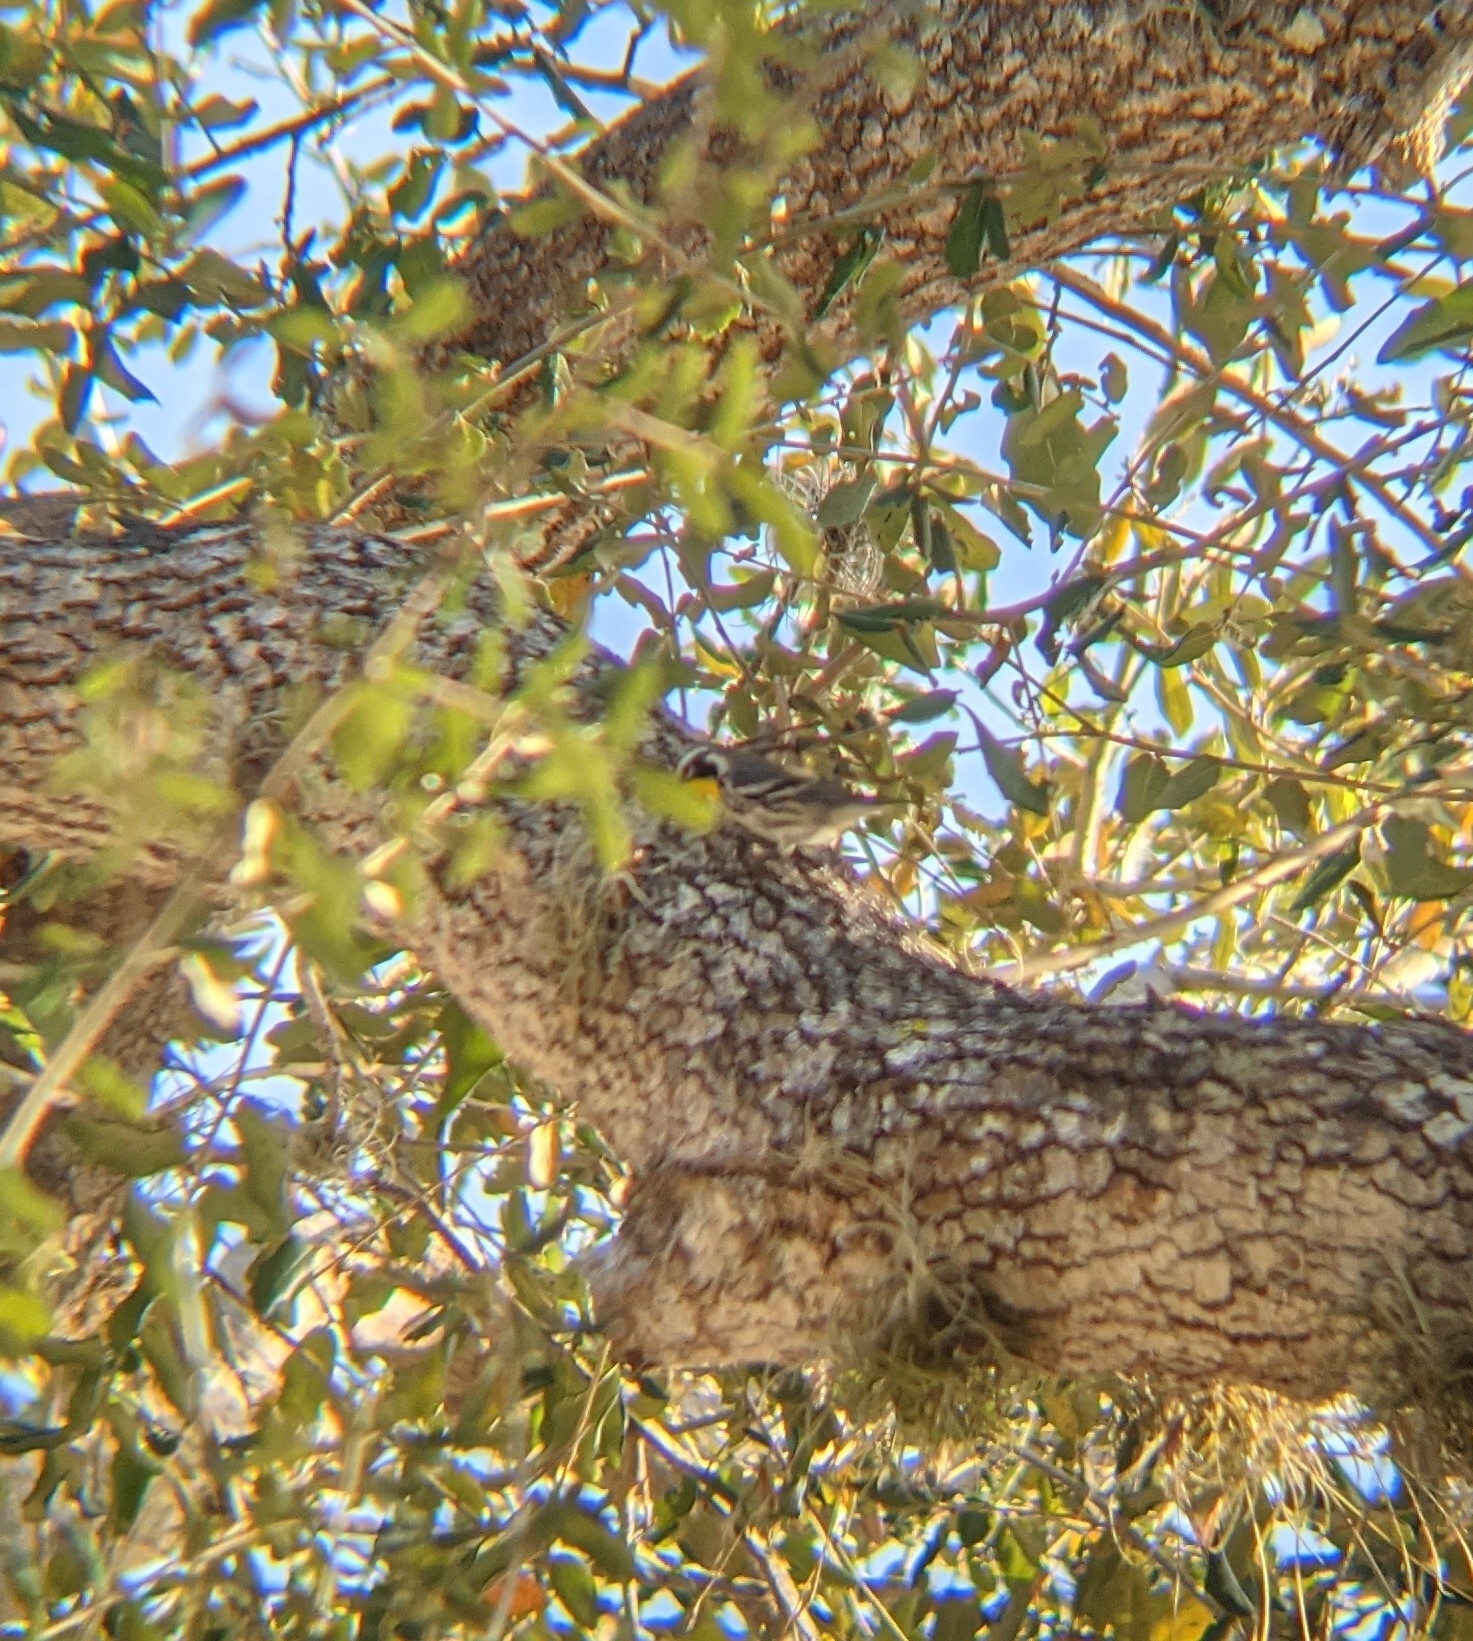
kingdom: Animalia
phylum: Chordata
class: Aves
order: Passeriformes
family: Parulidae
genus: Setophaga
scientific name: Setophaga dominica
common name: Yellow-throated warbler
